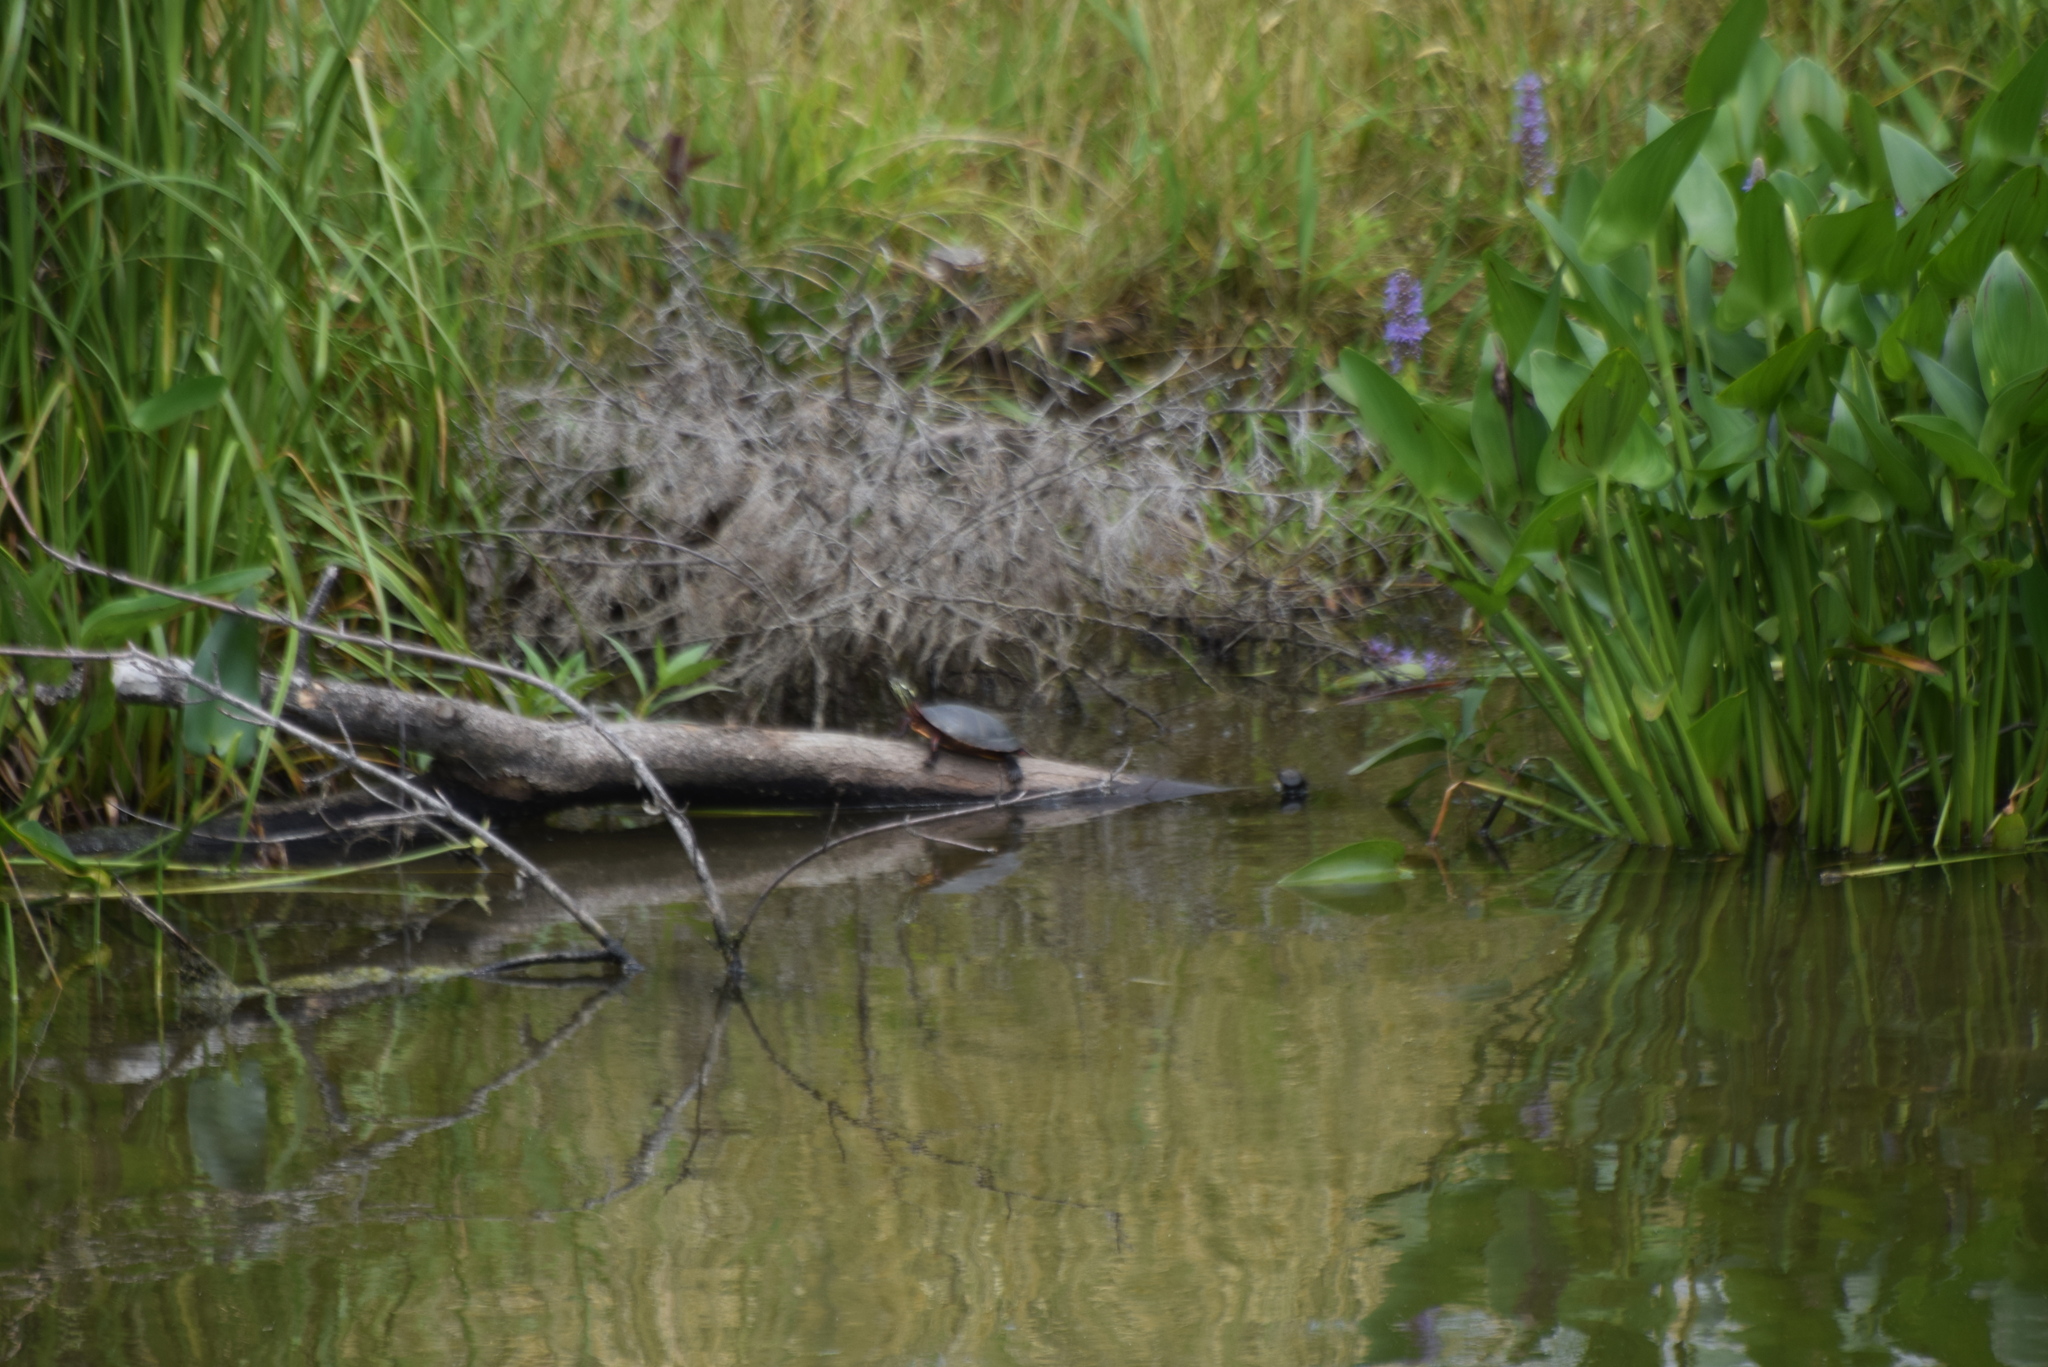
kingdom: Animalia
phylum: Chordata
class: Testudines
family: Emydidae
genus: Chrysemys
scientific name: Chrysemys picta
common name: Painted turtle
